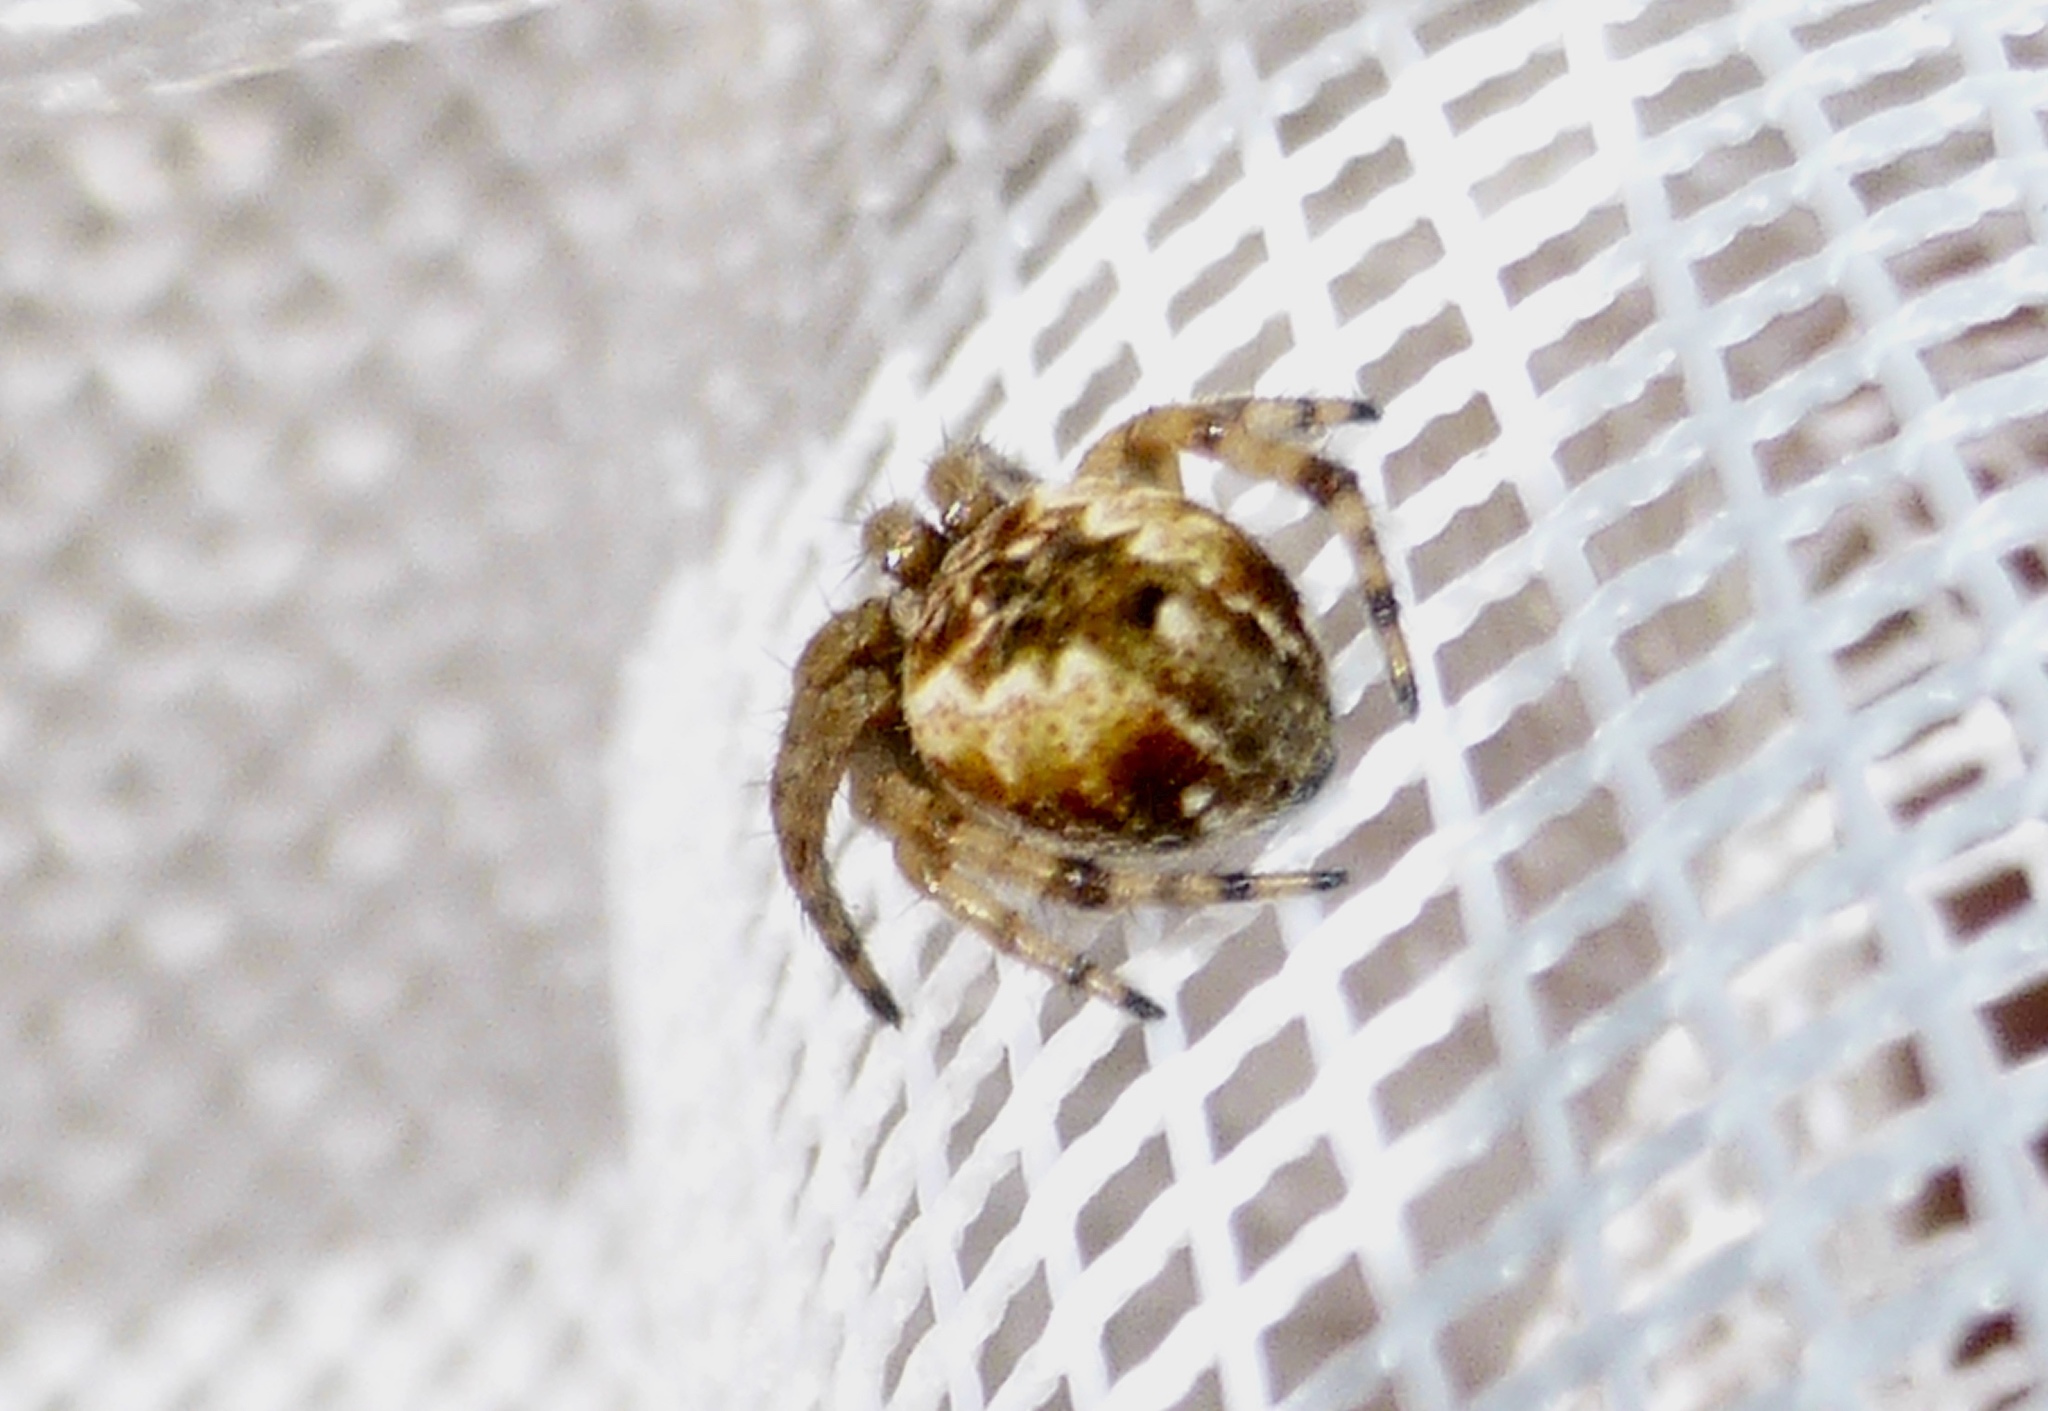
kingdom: Animalia
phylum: Arthropoda
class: Arachnida
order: Araneae
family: Araneidae
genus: Salsa
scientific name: Salsa fuliginata
